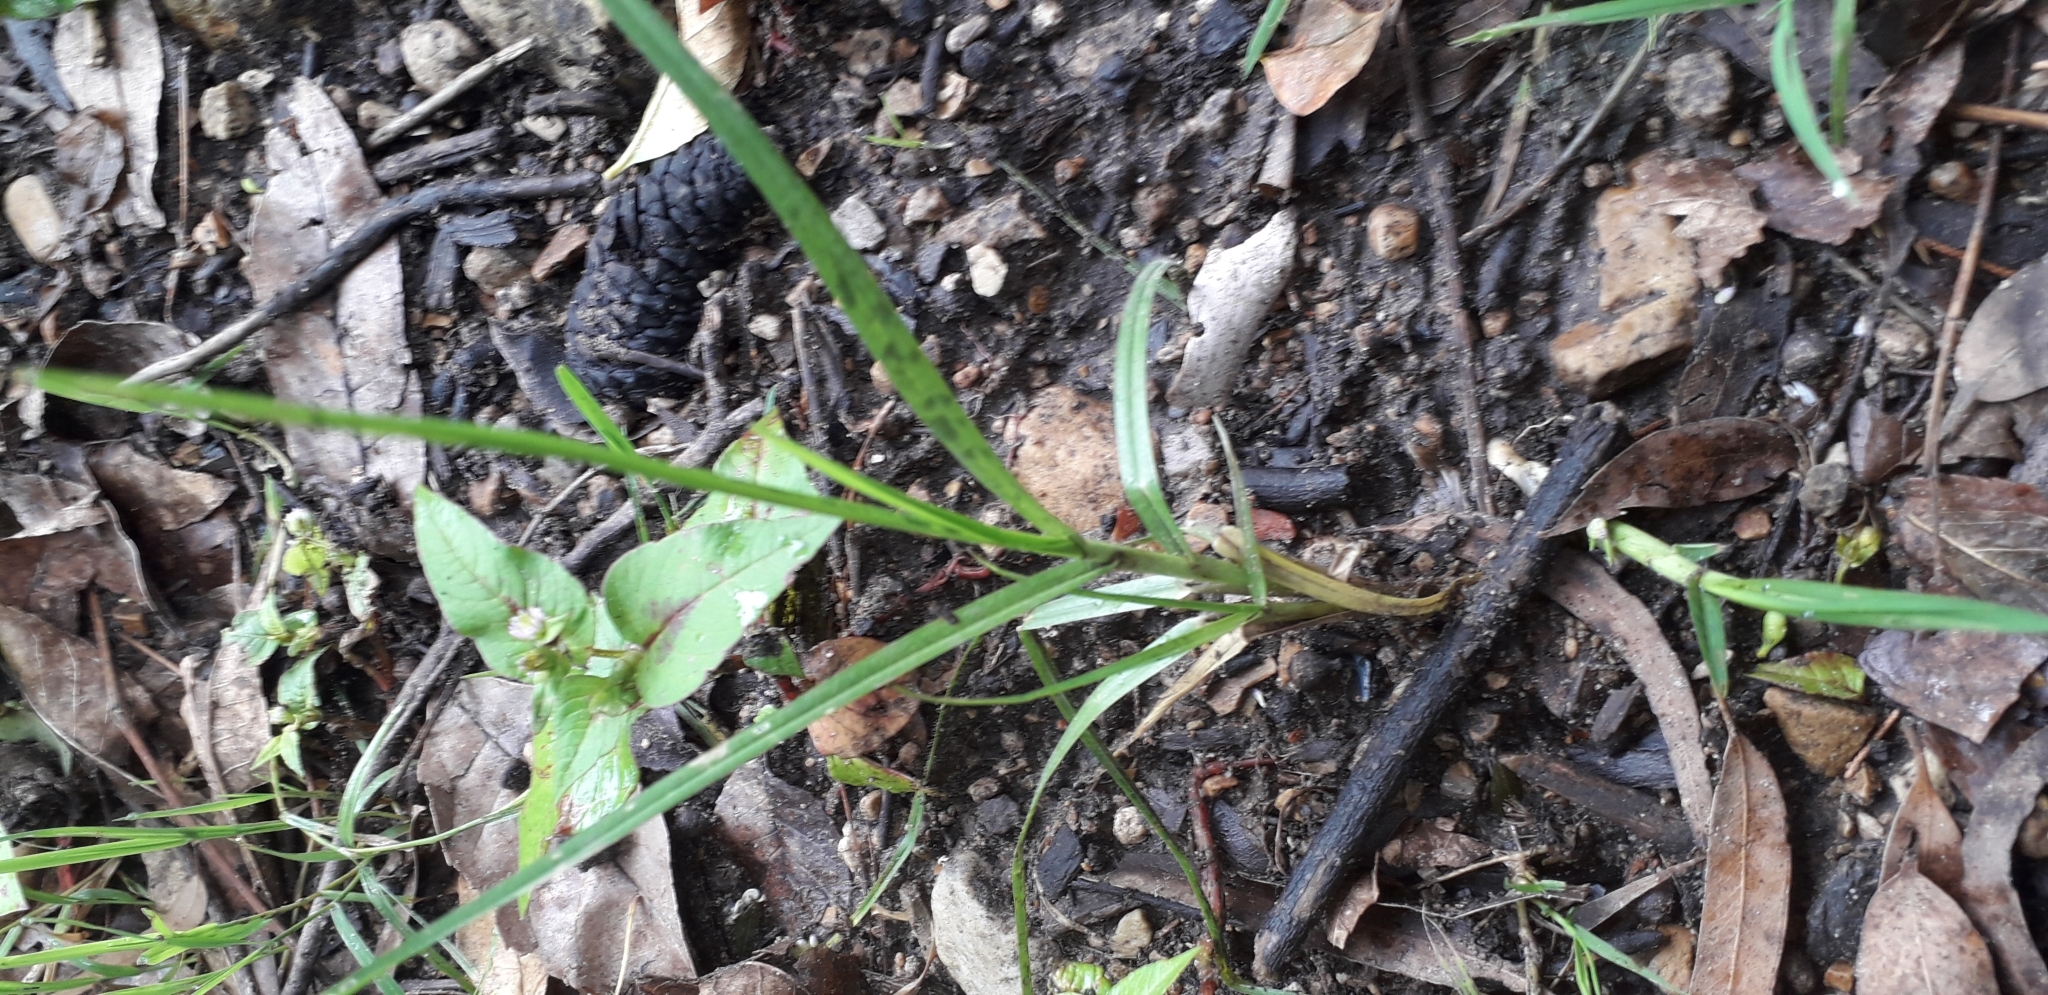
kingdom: Plantae
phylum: Tracheophyta
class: Liliopsida
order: Poales
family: Poaceae
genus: Cenchrus
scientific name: Cenchrus clandestinus
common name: Kikuyugrass
